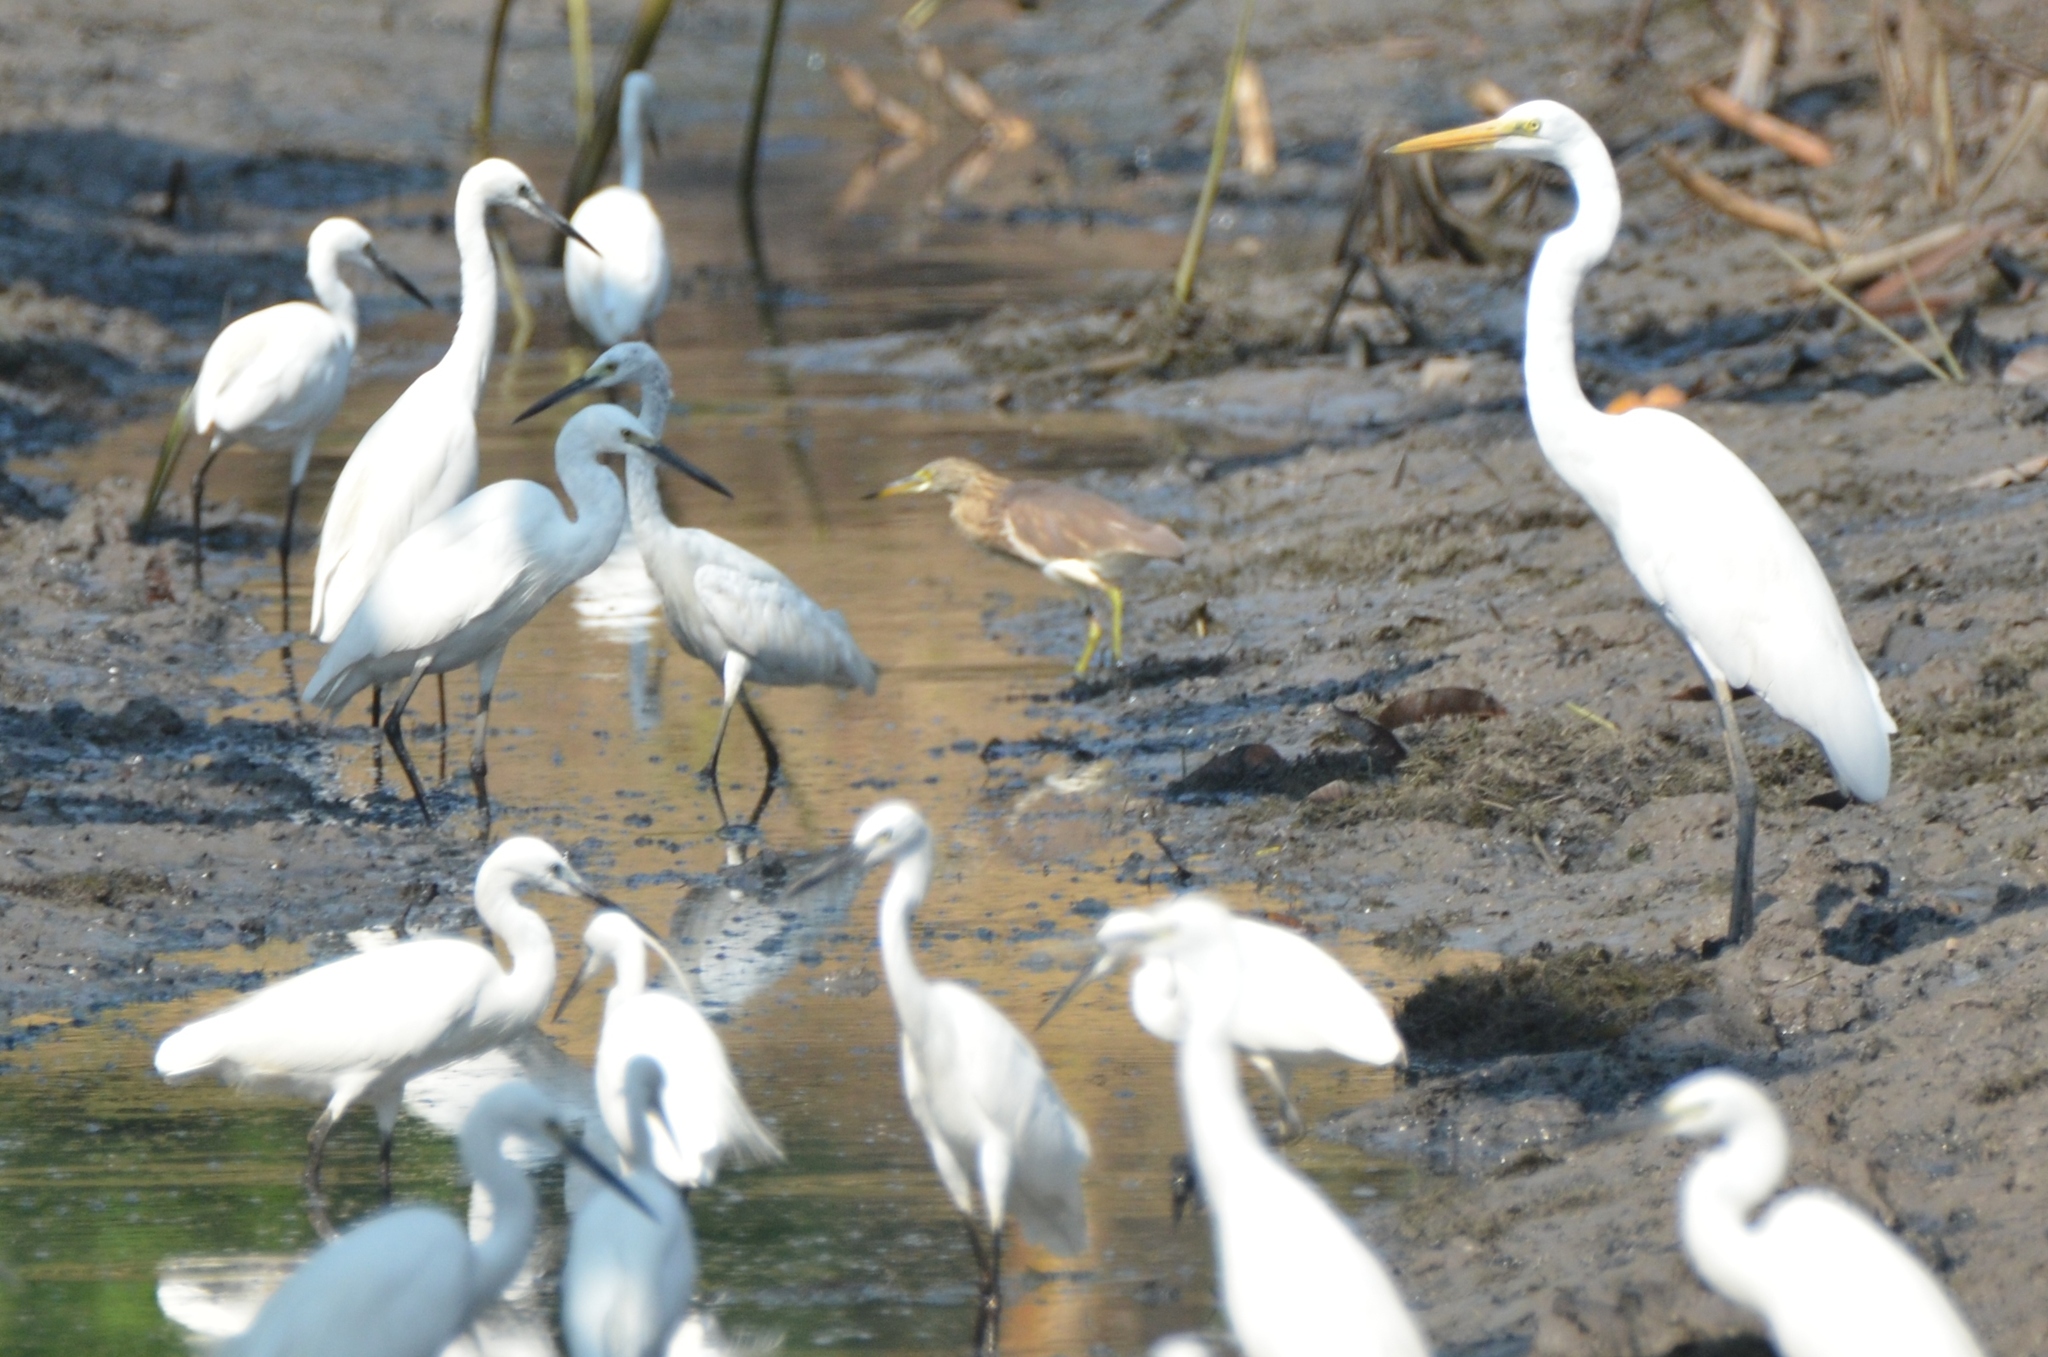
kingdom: Animalia
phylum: Chordata
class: Aves
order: Pelecaniformes
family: Ardeidae
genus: Ardea
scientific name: Ardea alba
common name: Great egret
